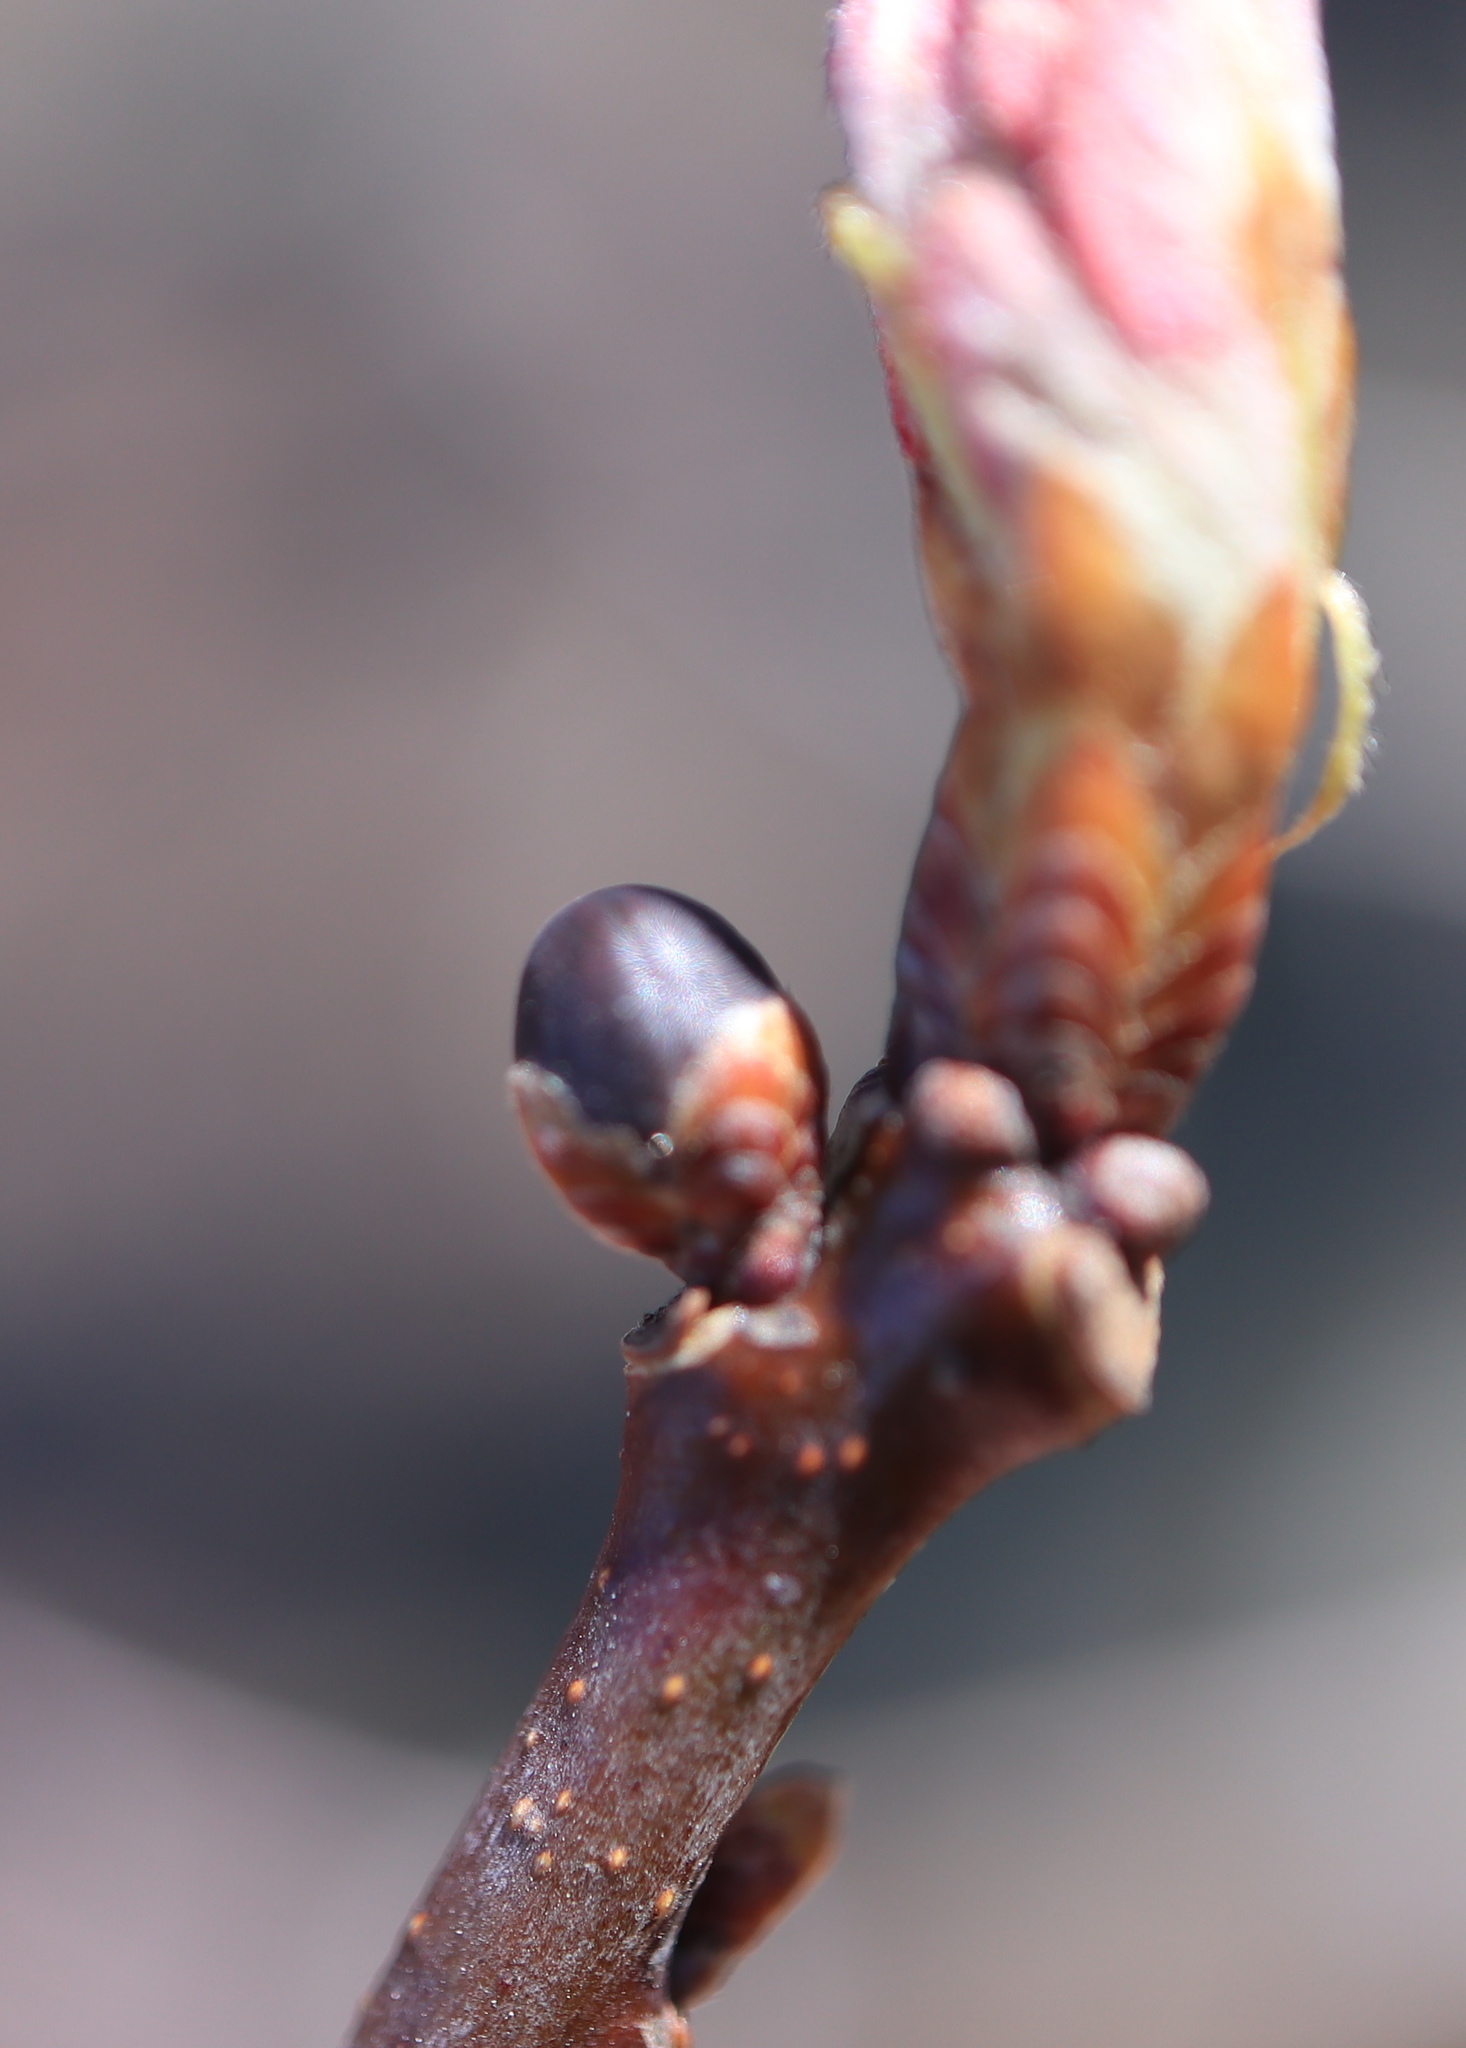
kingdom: Animalia
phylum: Arthropoda
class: Insecta
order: Hymenoptera
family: Cynipidae
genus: Neuroterus
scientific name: Neuroterus
